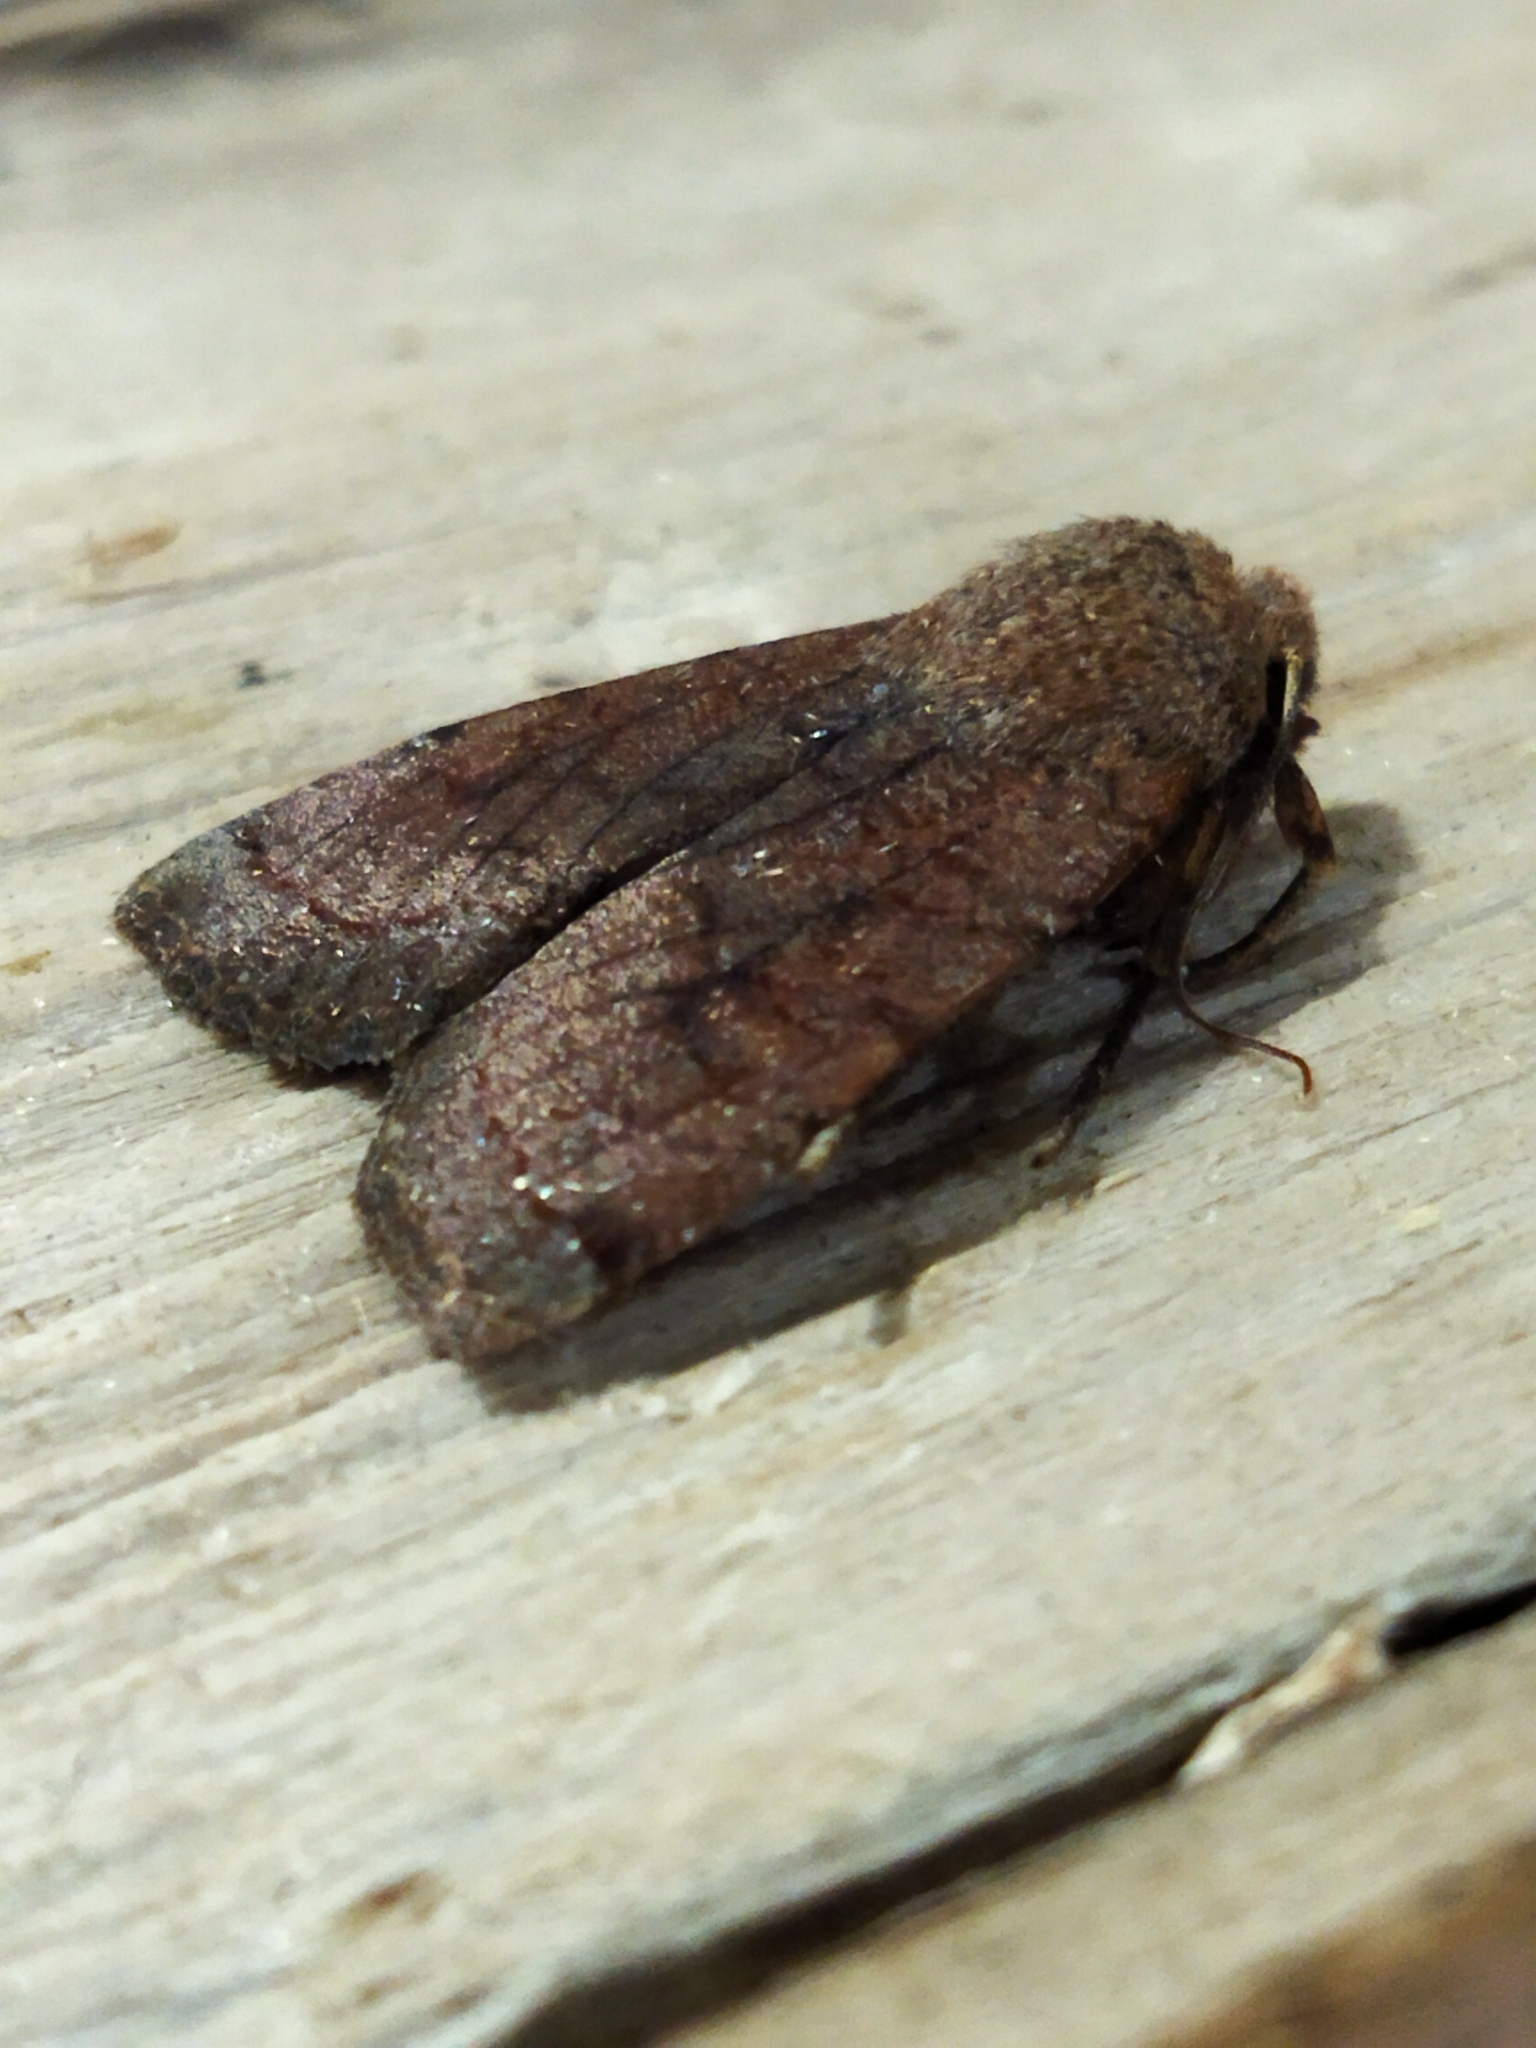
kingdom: Animalia
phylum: Arthropoda
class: Insecta
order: Lepidoptera
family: Noctuidae
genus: Conistra
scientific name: Conistra veronicae
